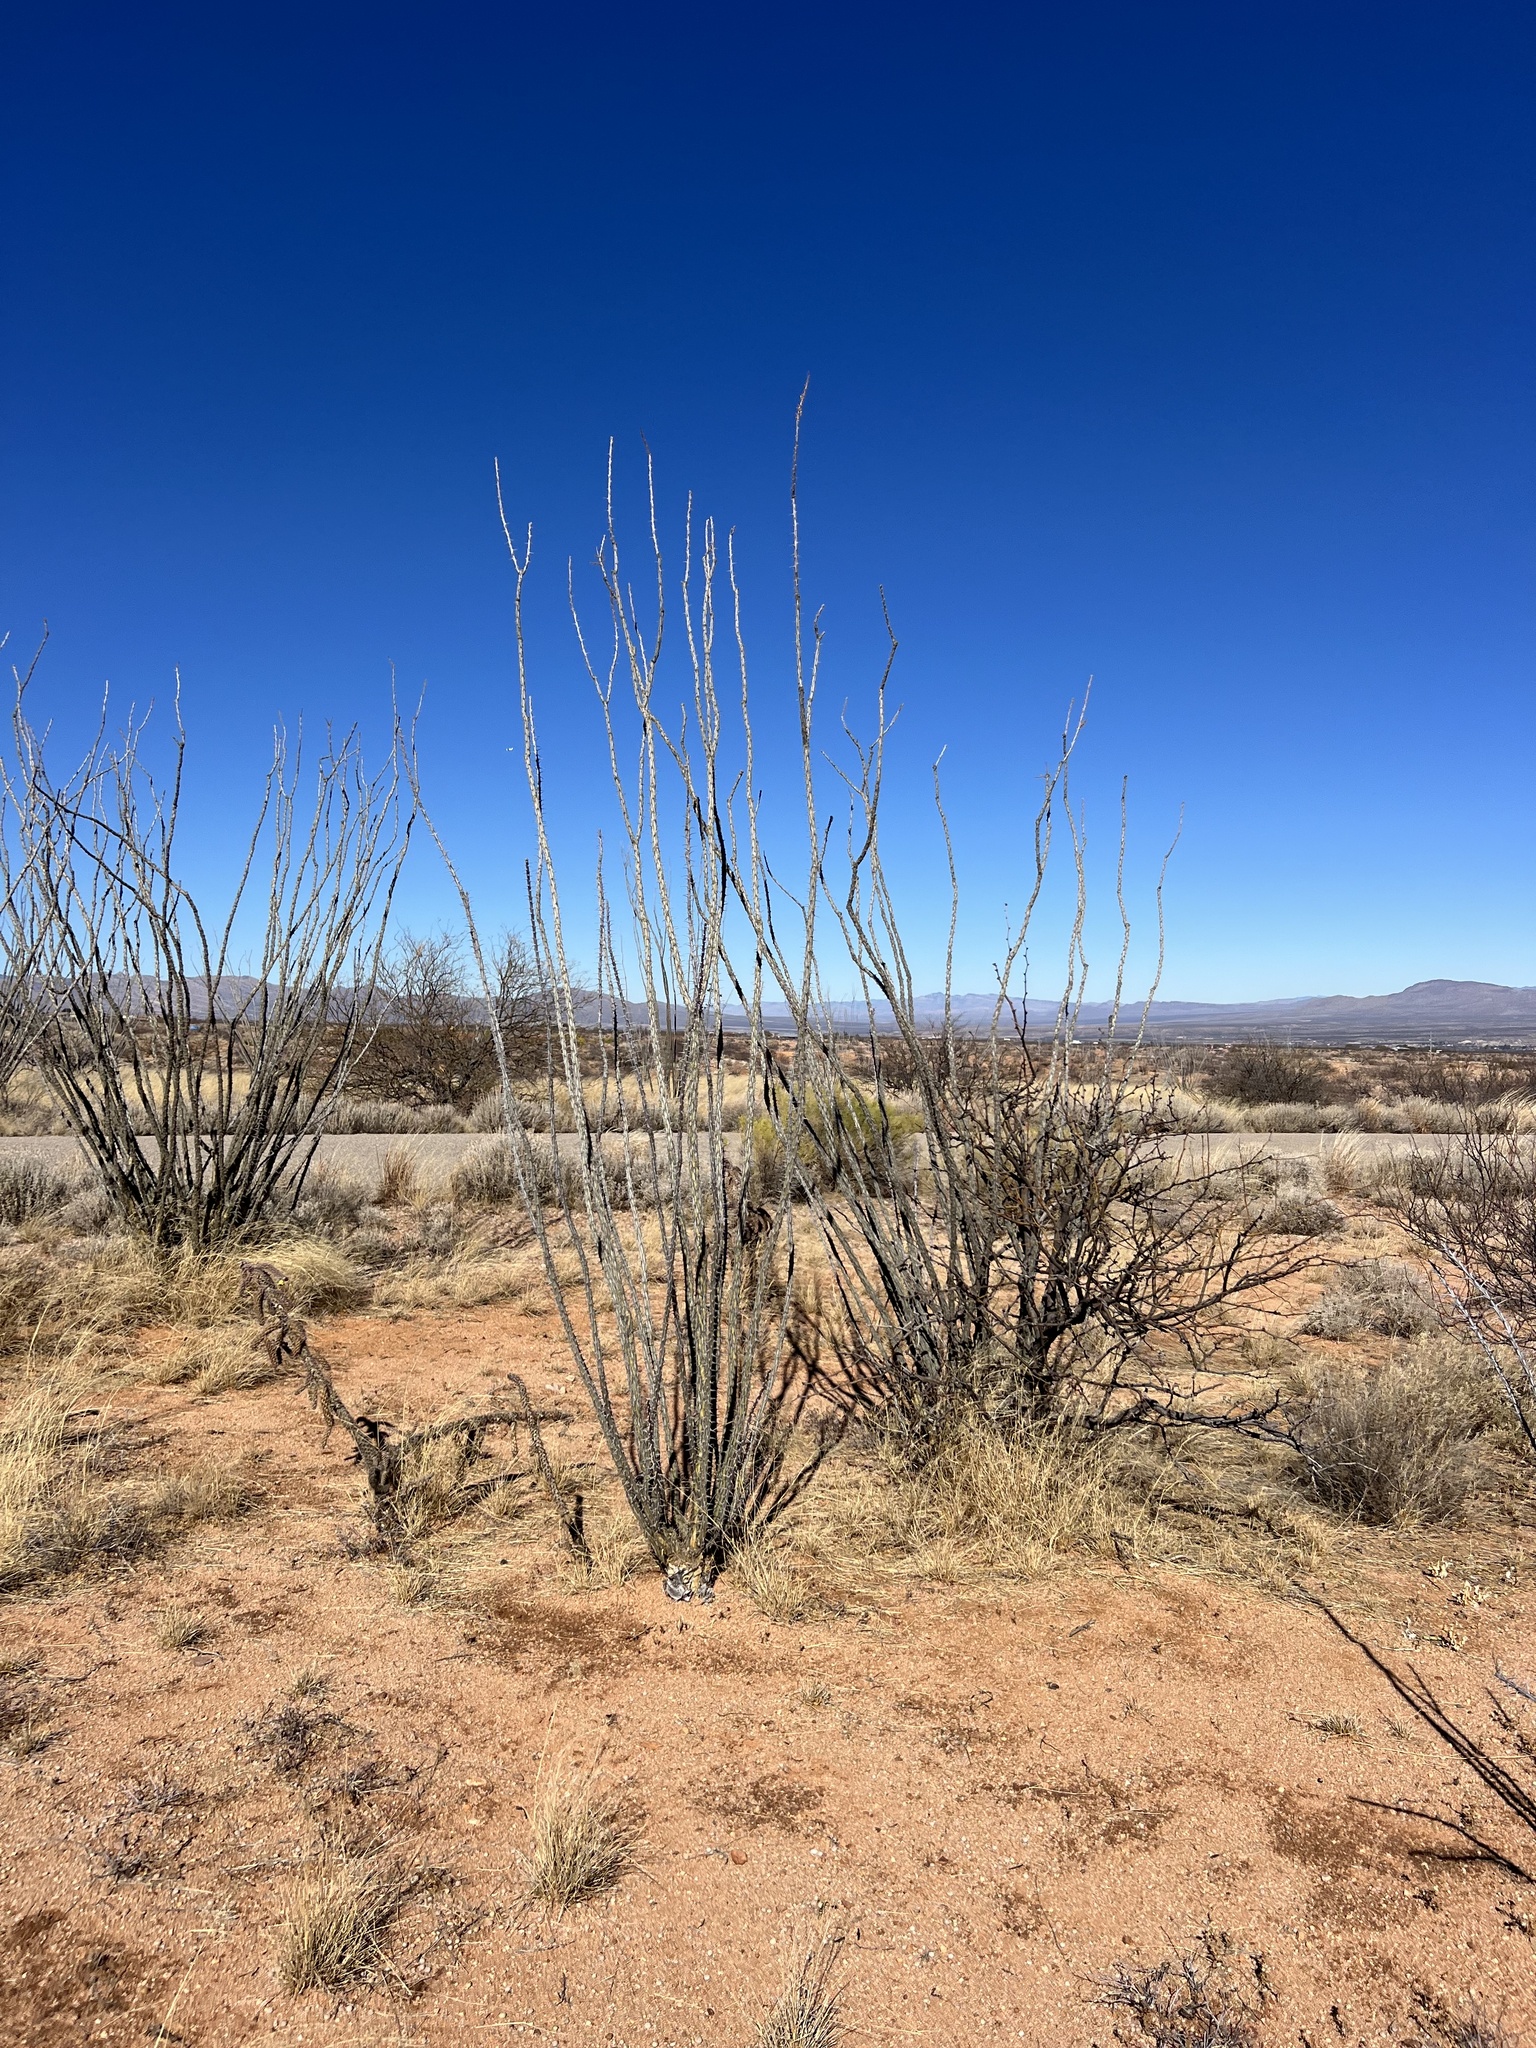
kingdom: Plantae
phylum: Tracheophyta
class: Magnoliopsida
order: Ericales
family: Fouquieriaceae
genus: Fouquieria
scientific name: Fouquieria splendens
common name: Vine-cactus
